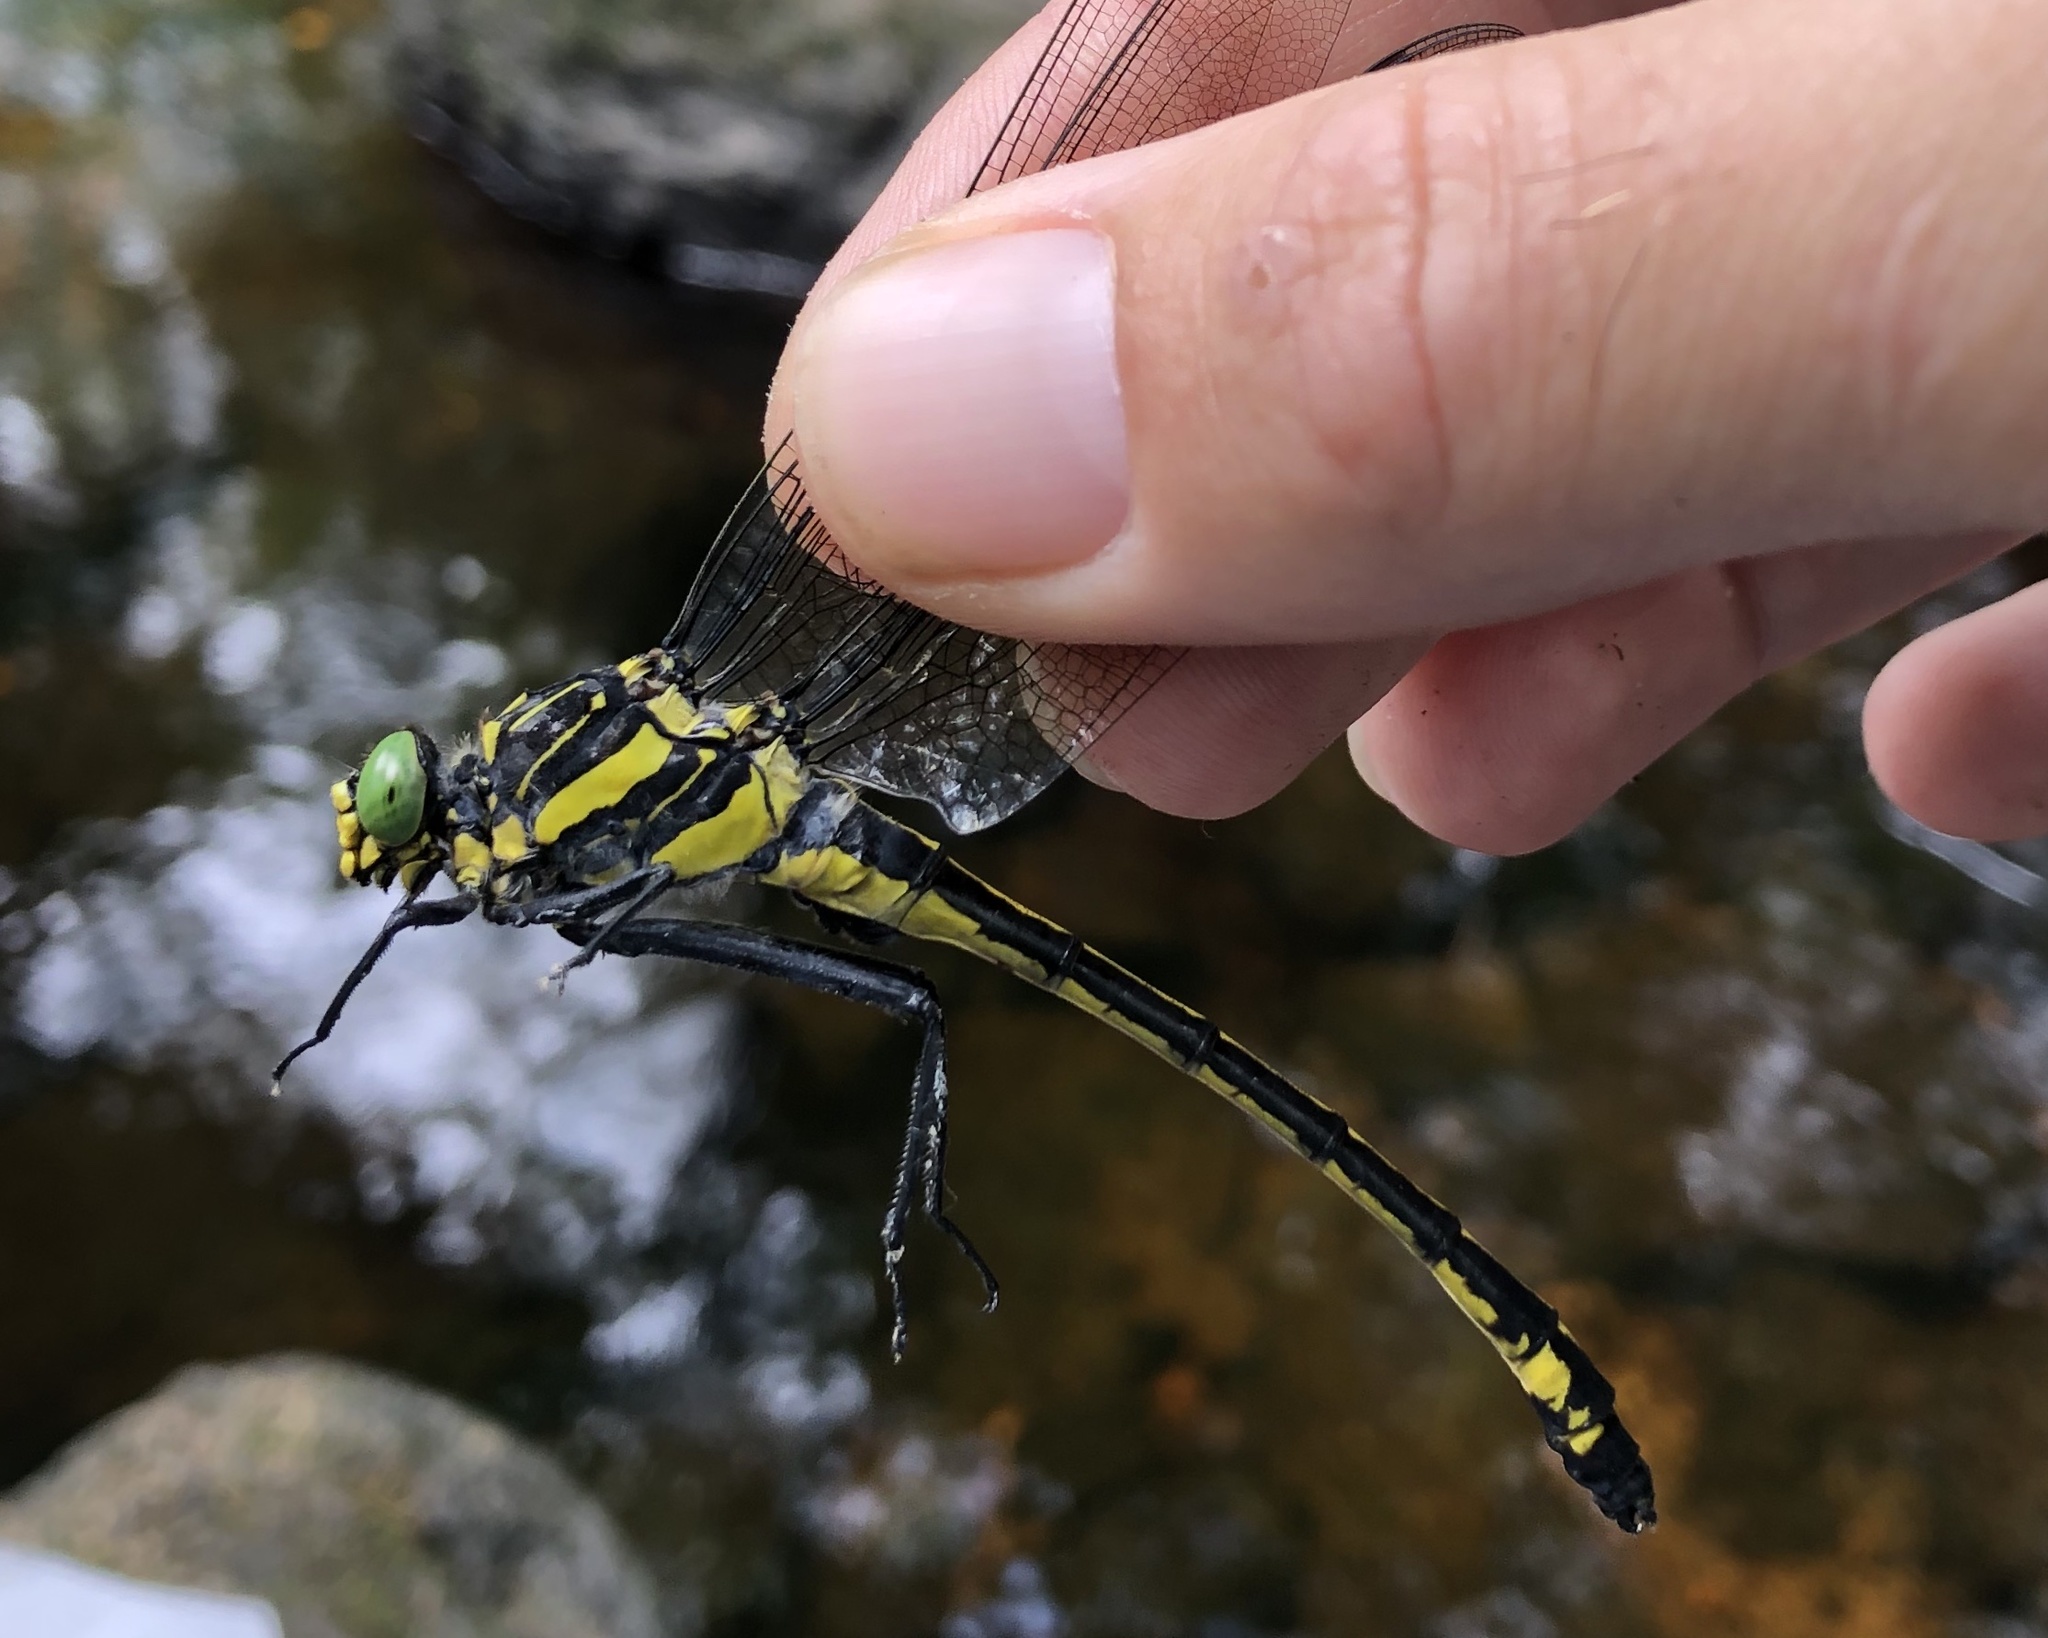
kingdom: Animalia
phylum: Arthropoda
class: Insecta
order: Odonata
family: Gomphidae
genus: Hagenius
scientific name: Hagenius brevistylus
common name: Dragonhunter
